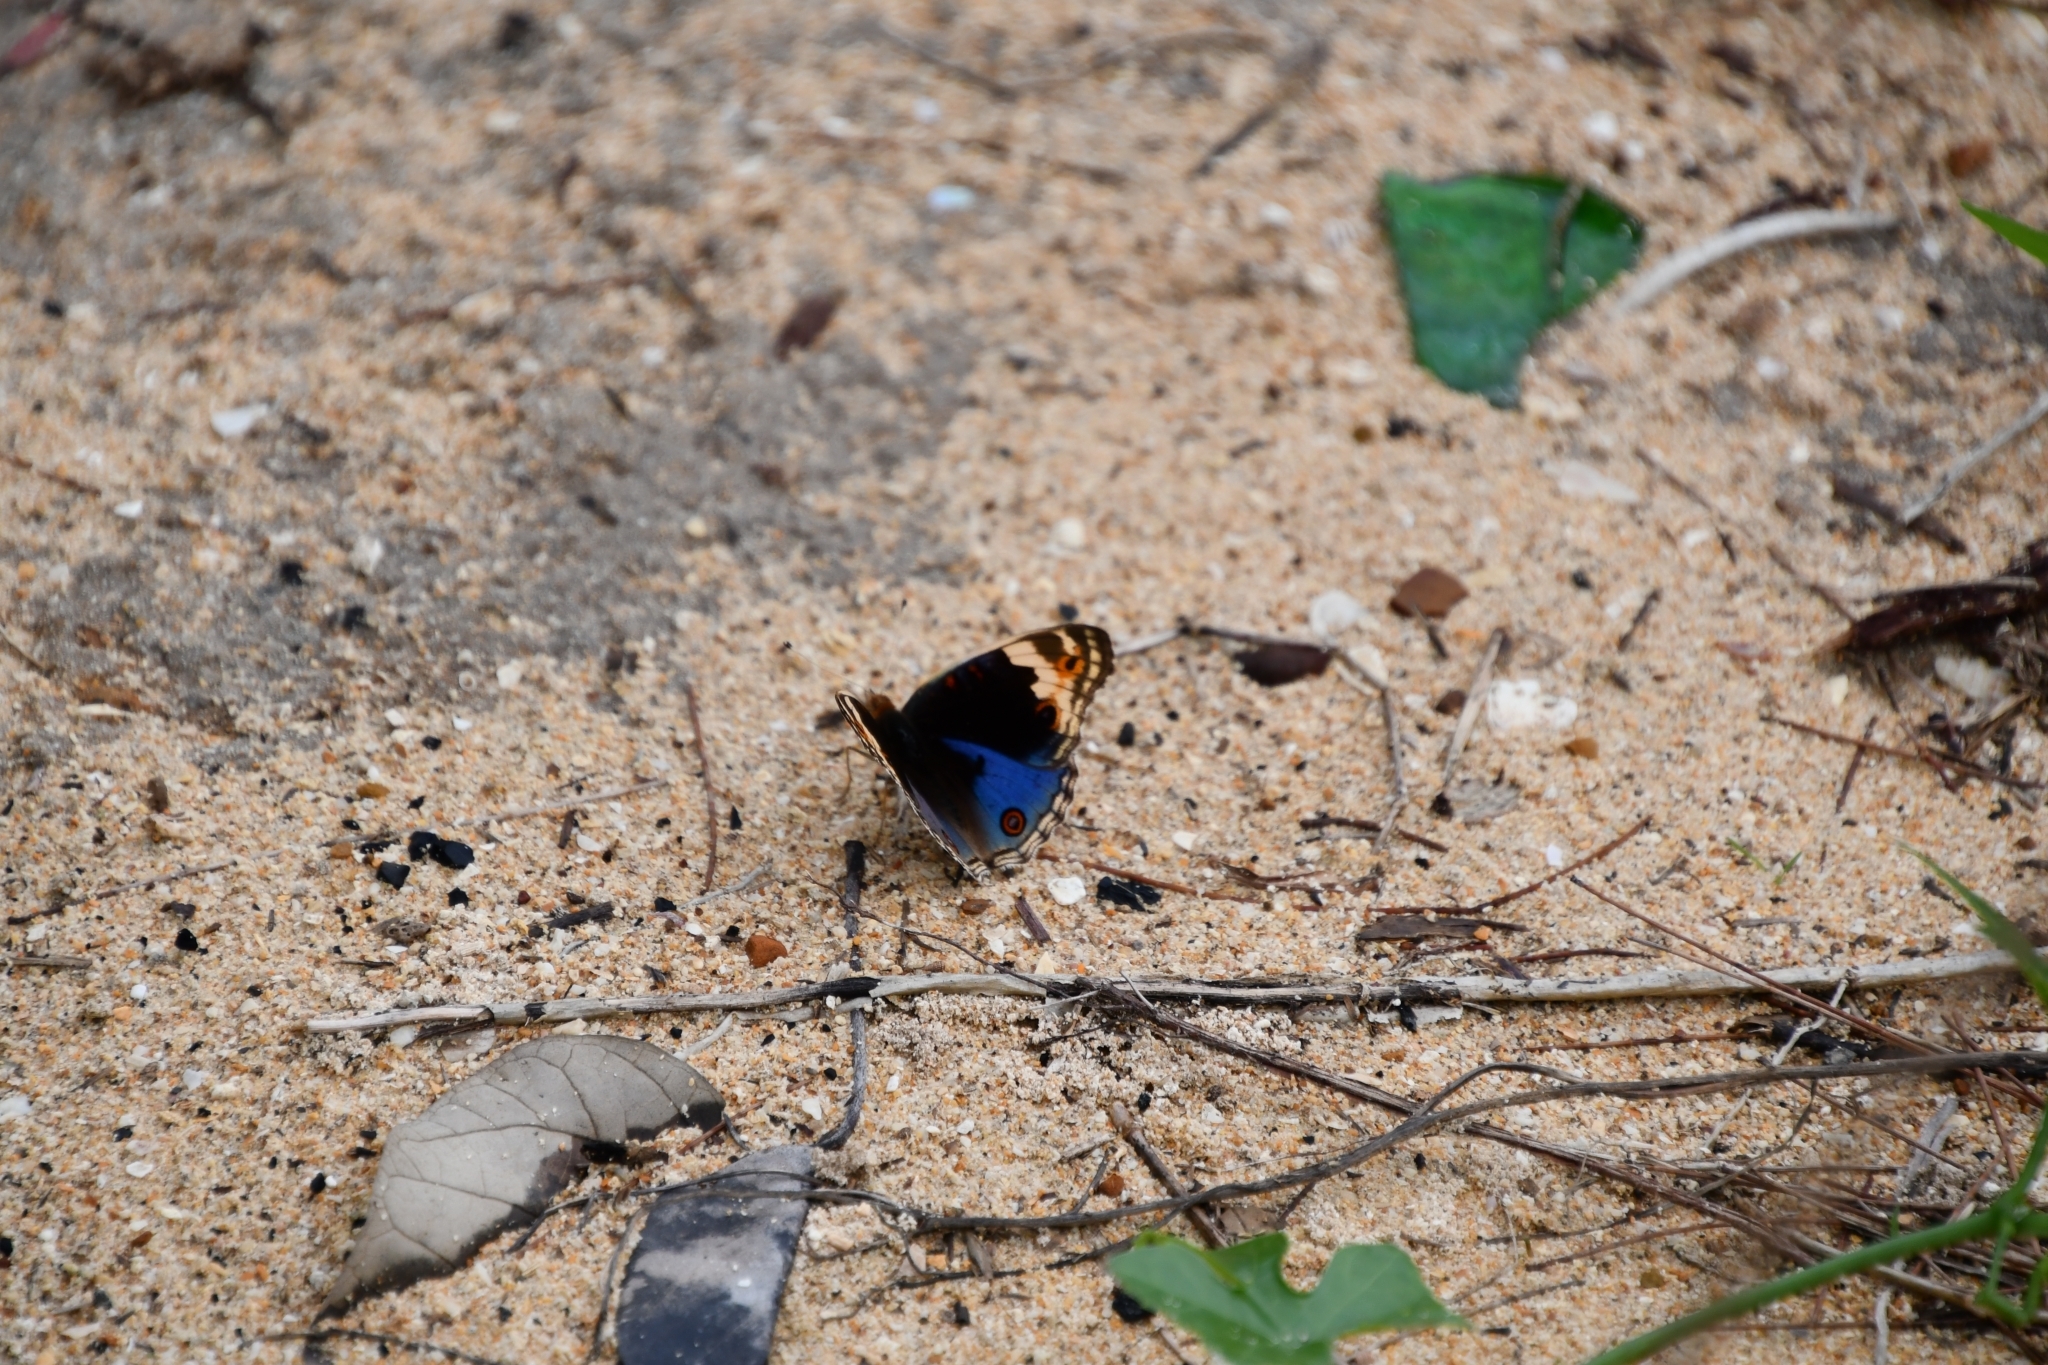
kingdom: Animalia
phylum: Arthropoda
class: Insecta
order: Lepidoptera
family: Nymphalidae
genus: Junonia
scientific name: Junonia orithya
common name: Blue pansy
